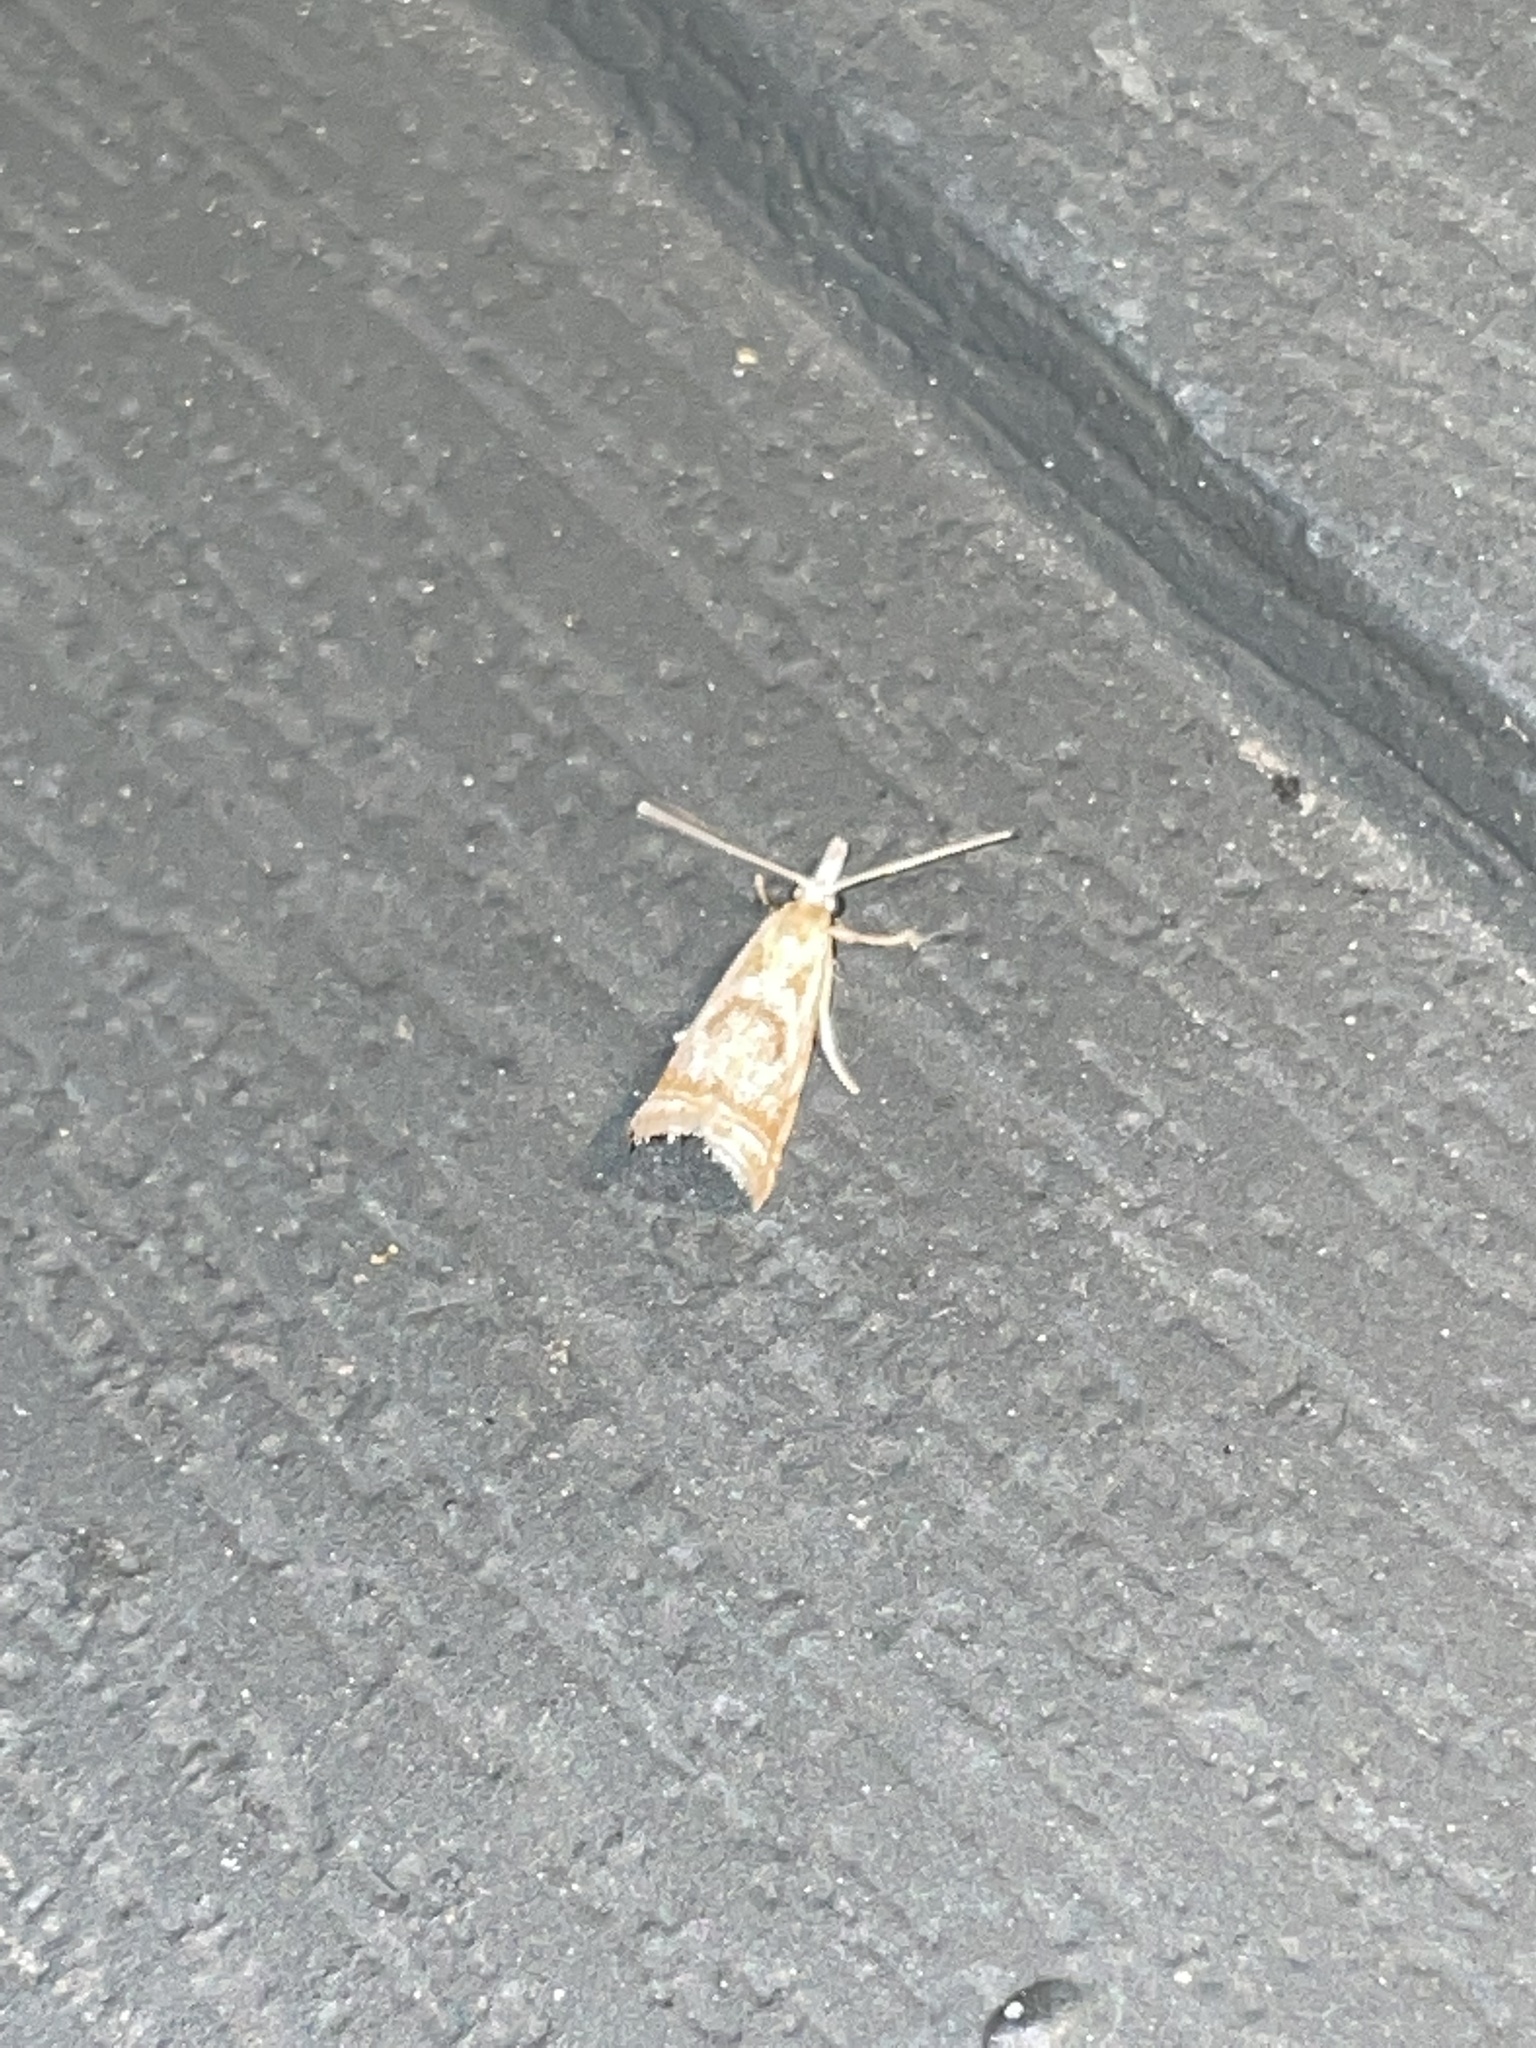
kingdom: Animalia
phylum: Arthropoda
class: Insecta
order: Lepidoptera
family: Crambidae
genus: Microcrambus
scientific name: Microcrambus elegans
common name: Elegant grass-veneer
